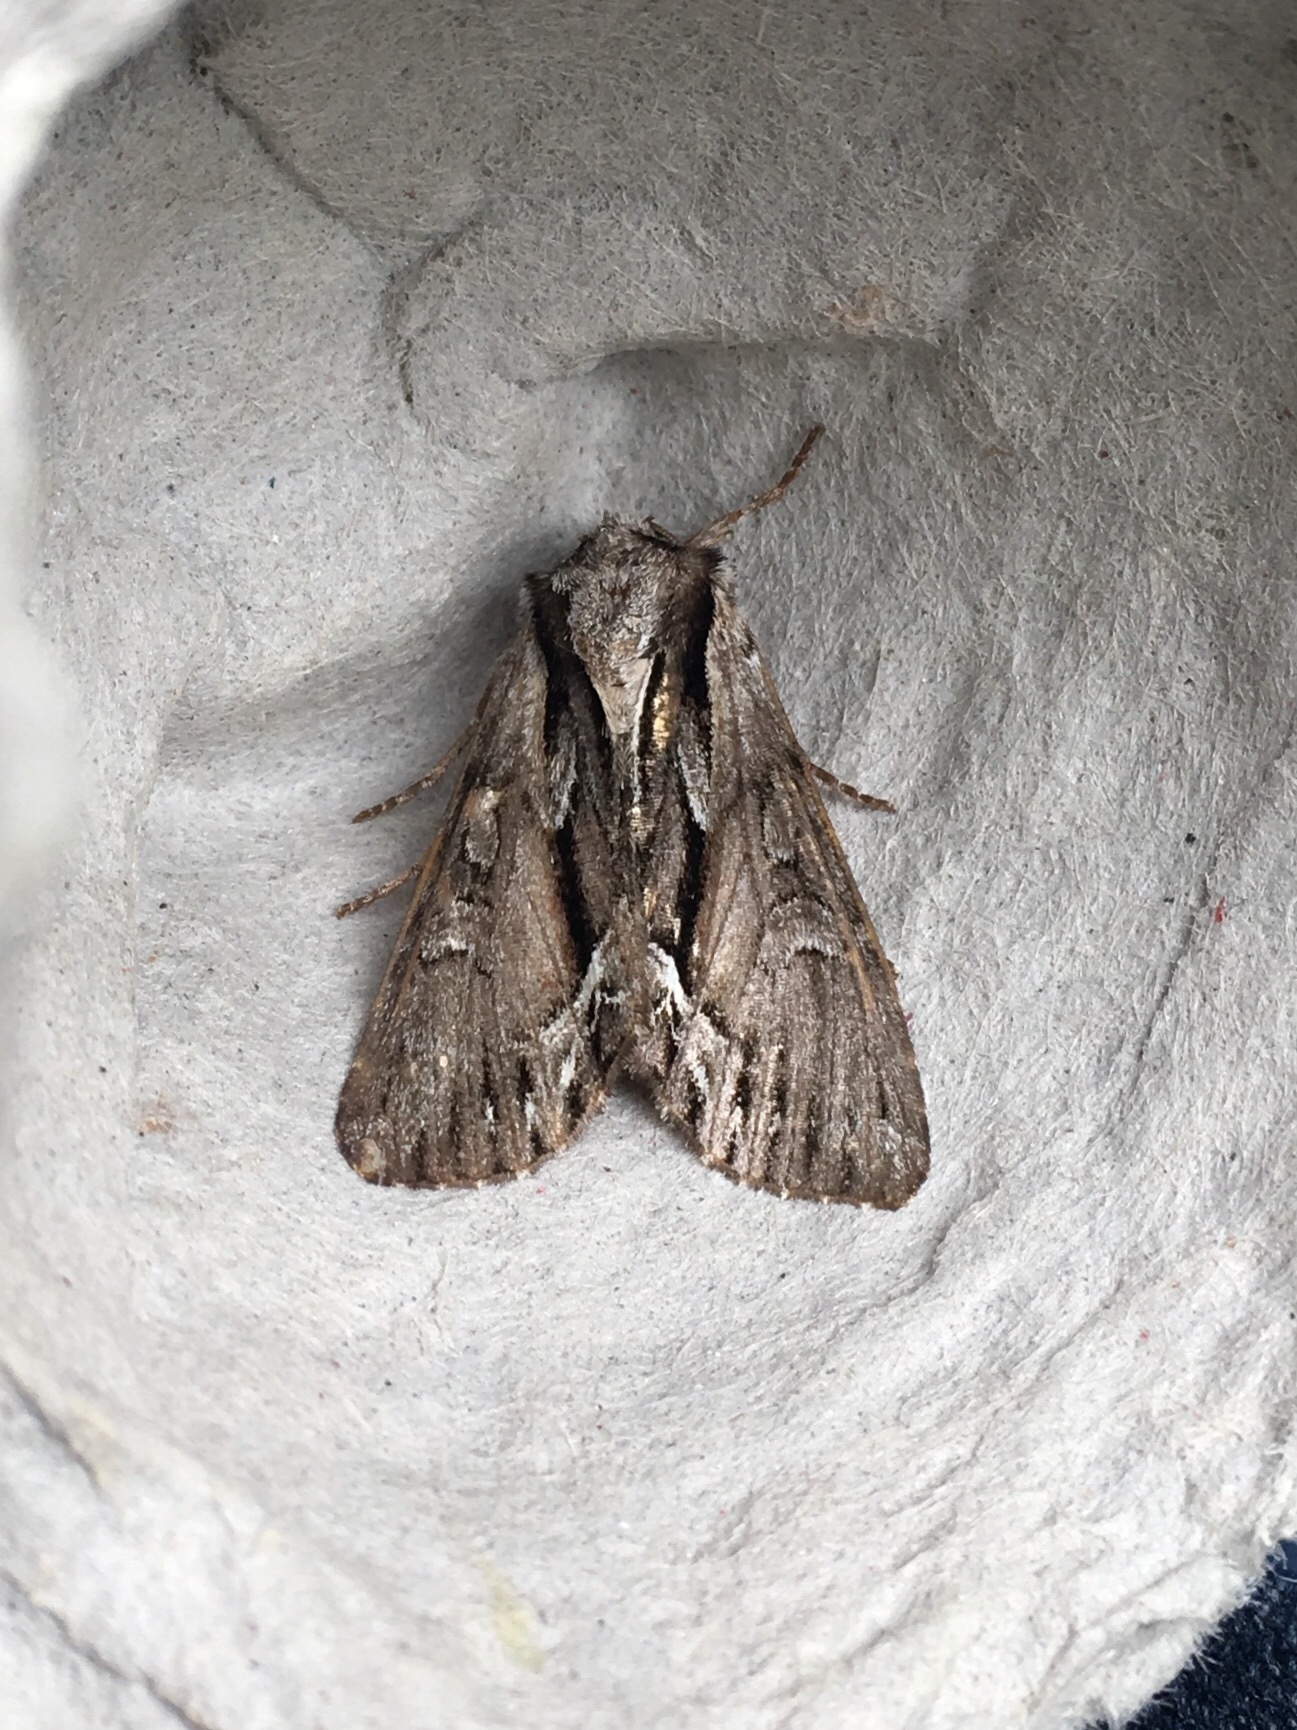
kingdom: Animalia
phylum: Arthropoda
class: Insecta
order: Lepidoptera
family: Noctuidae
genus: Hyppa
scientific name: Hyppa xylinoides
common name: Common hyppa moth
